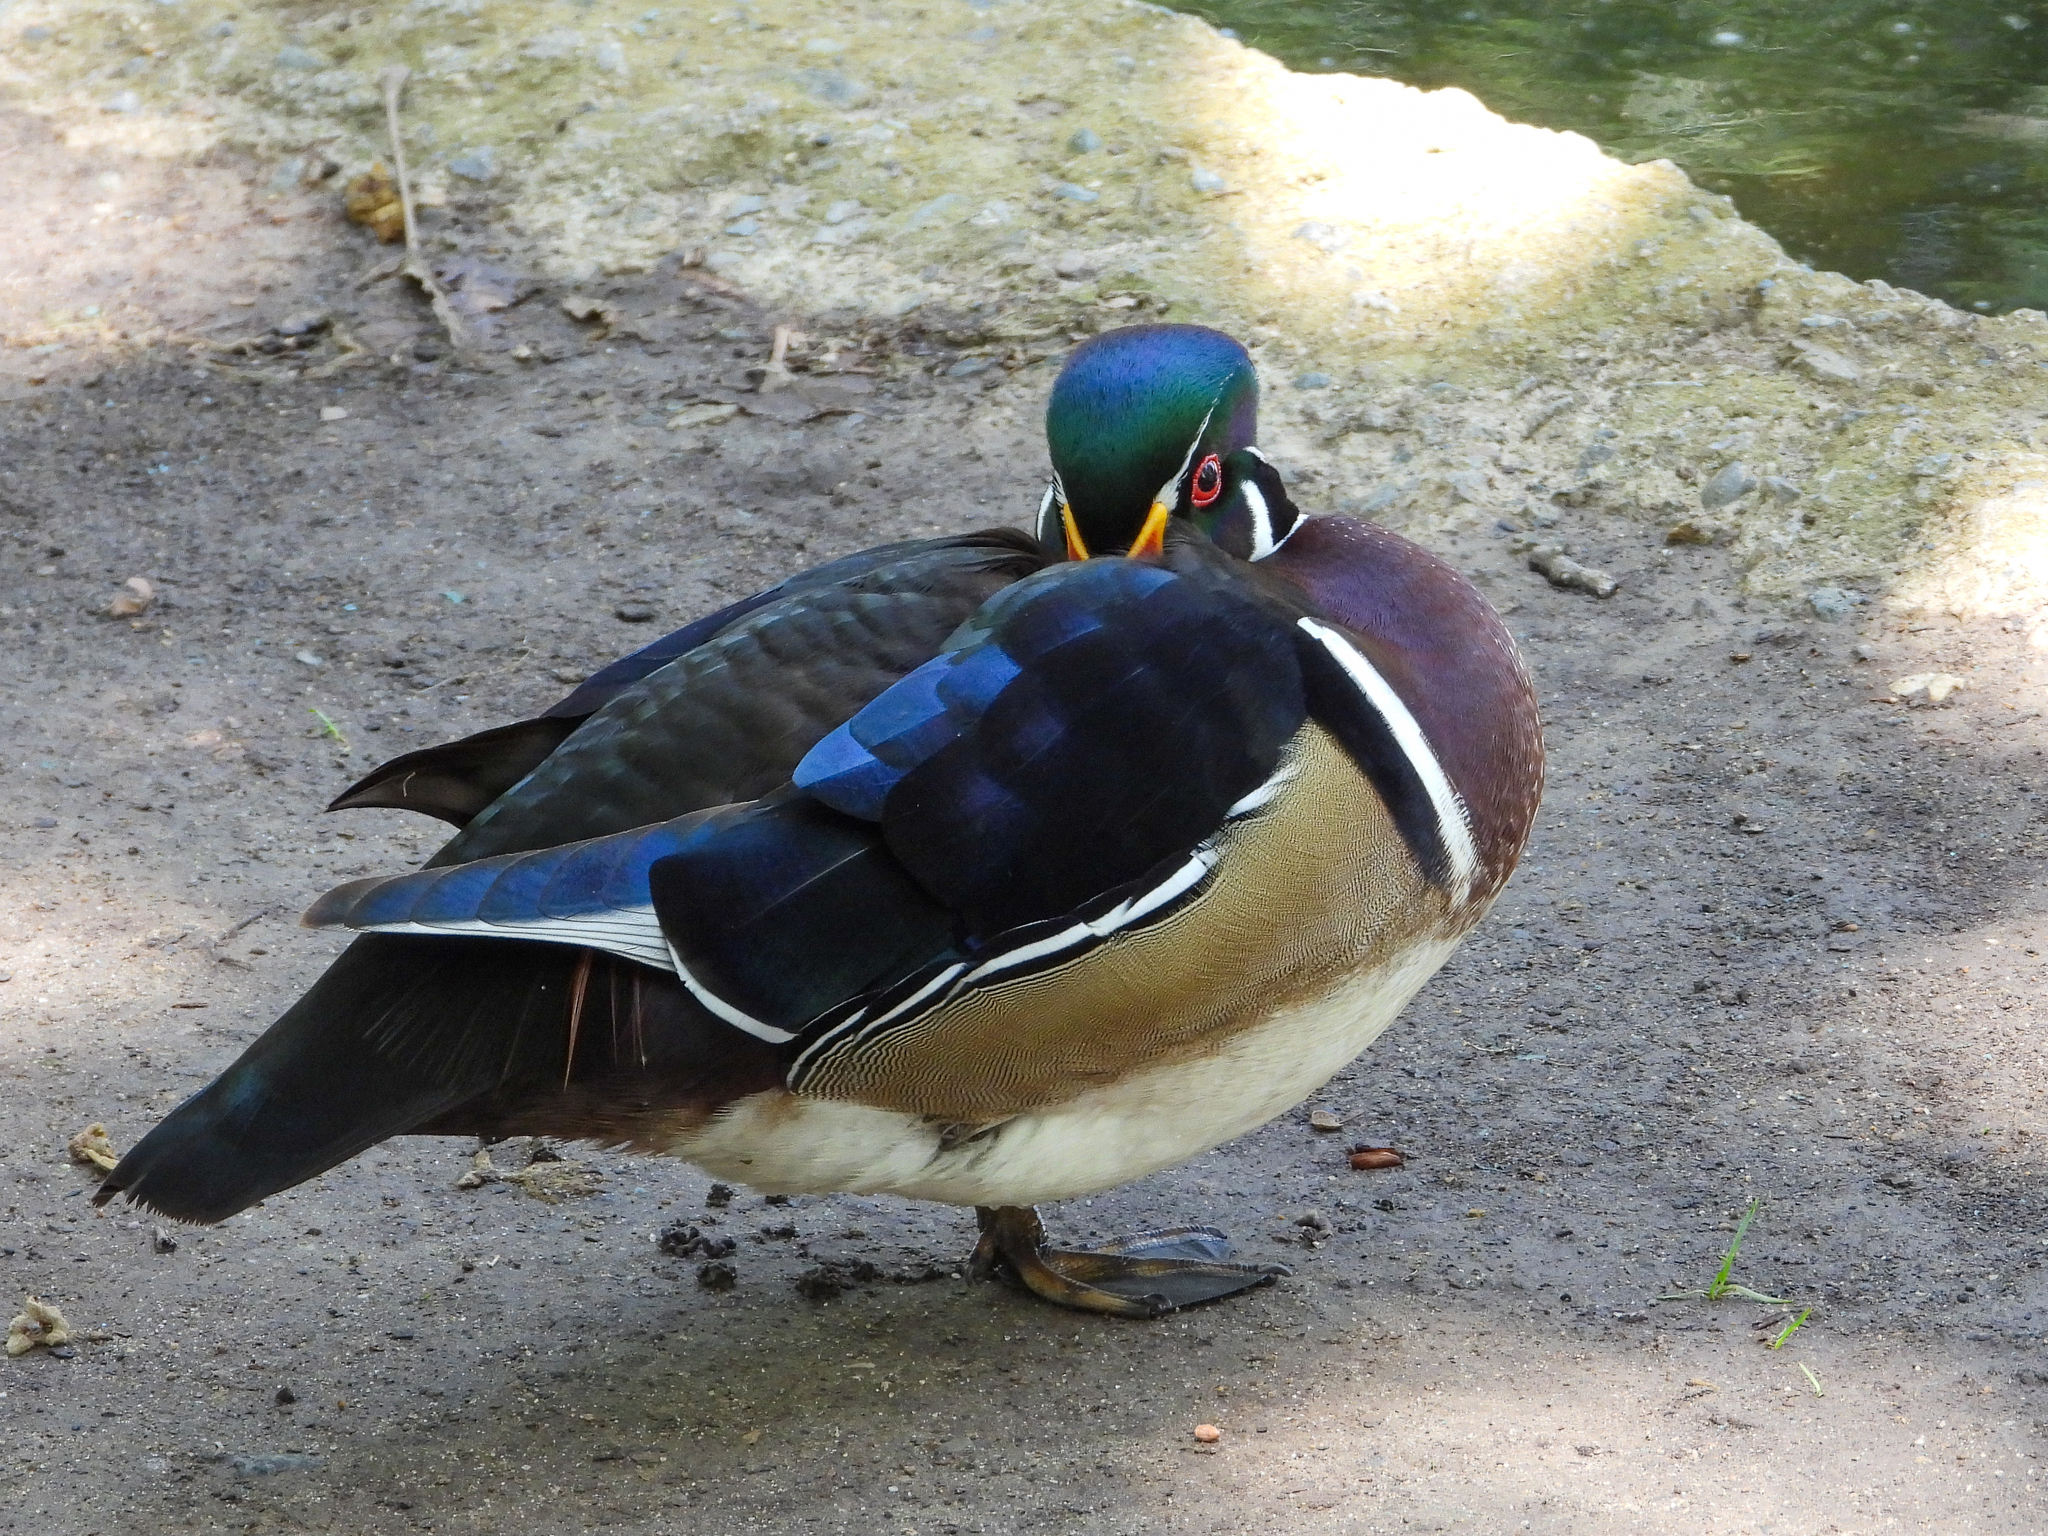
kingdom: Animalia
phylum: Chordata
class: Aves
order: Anseriformes
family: Anatidae
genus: Aix
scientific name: Aix sponsa
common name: Wood duck
